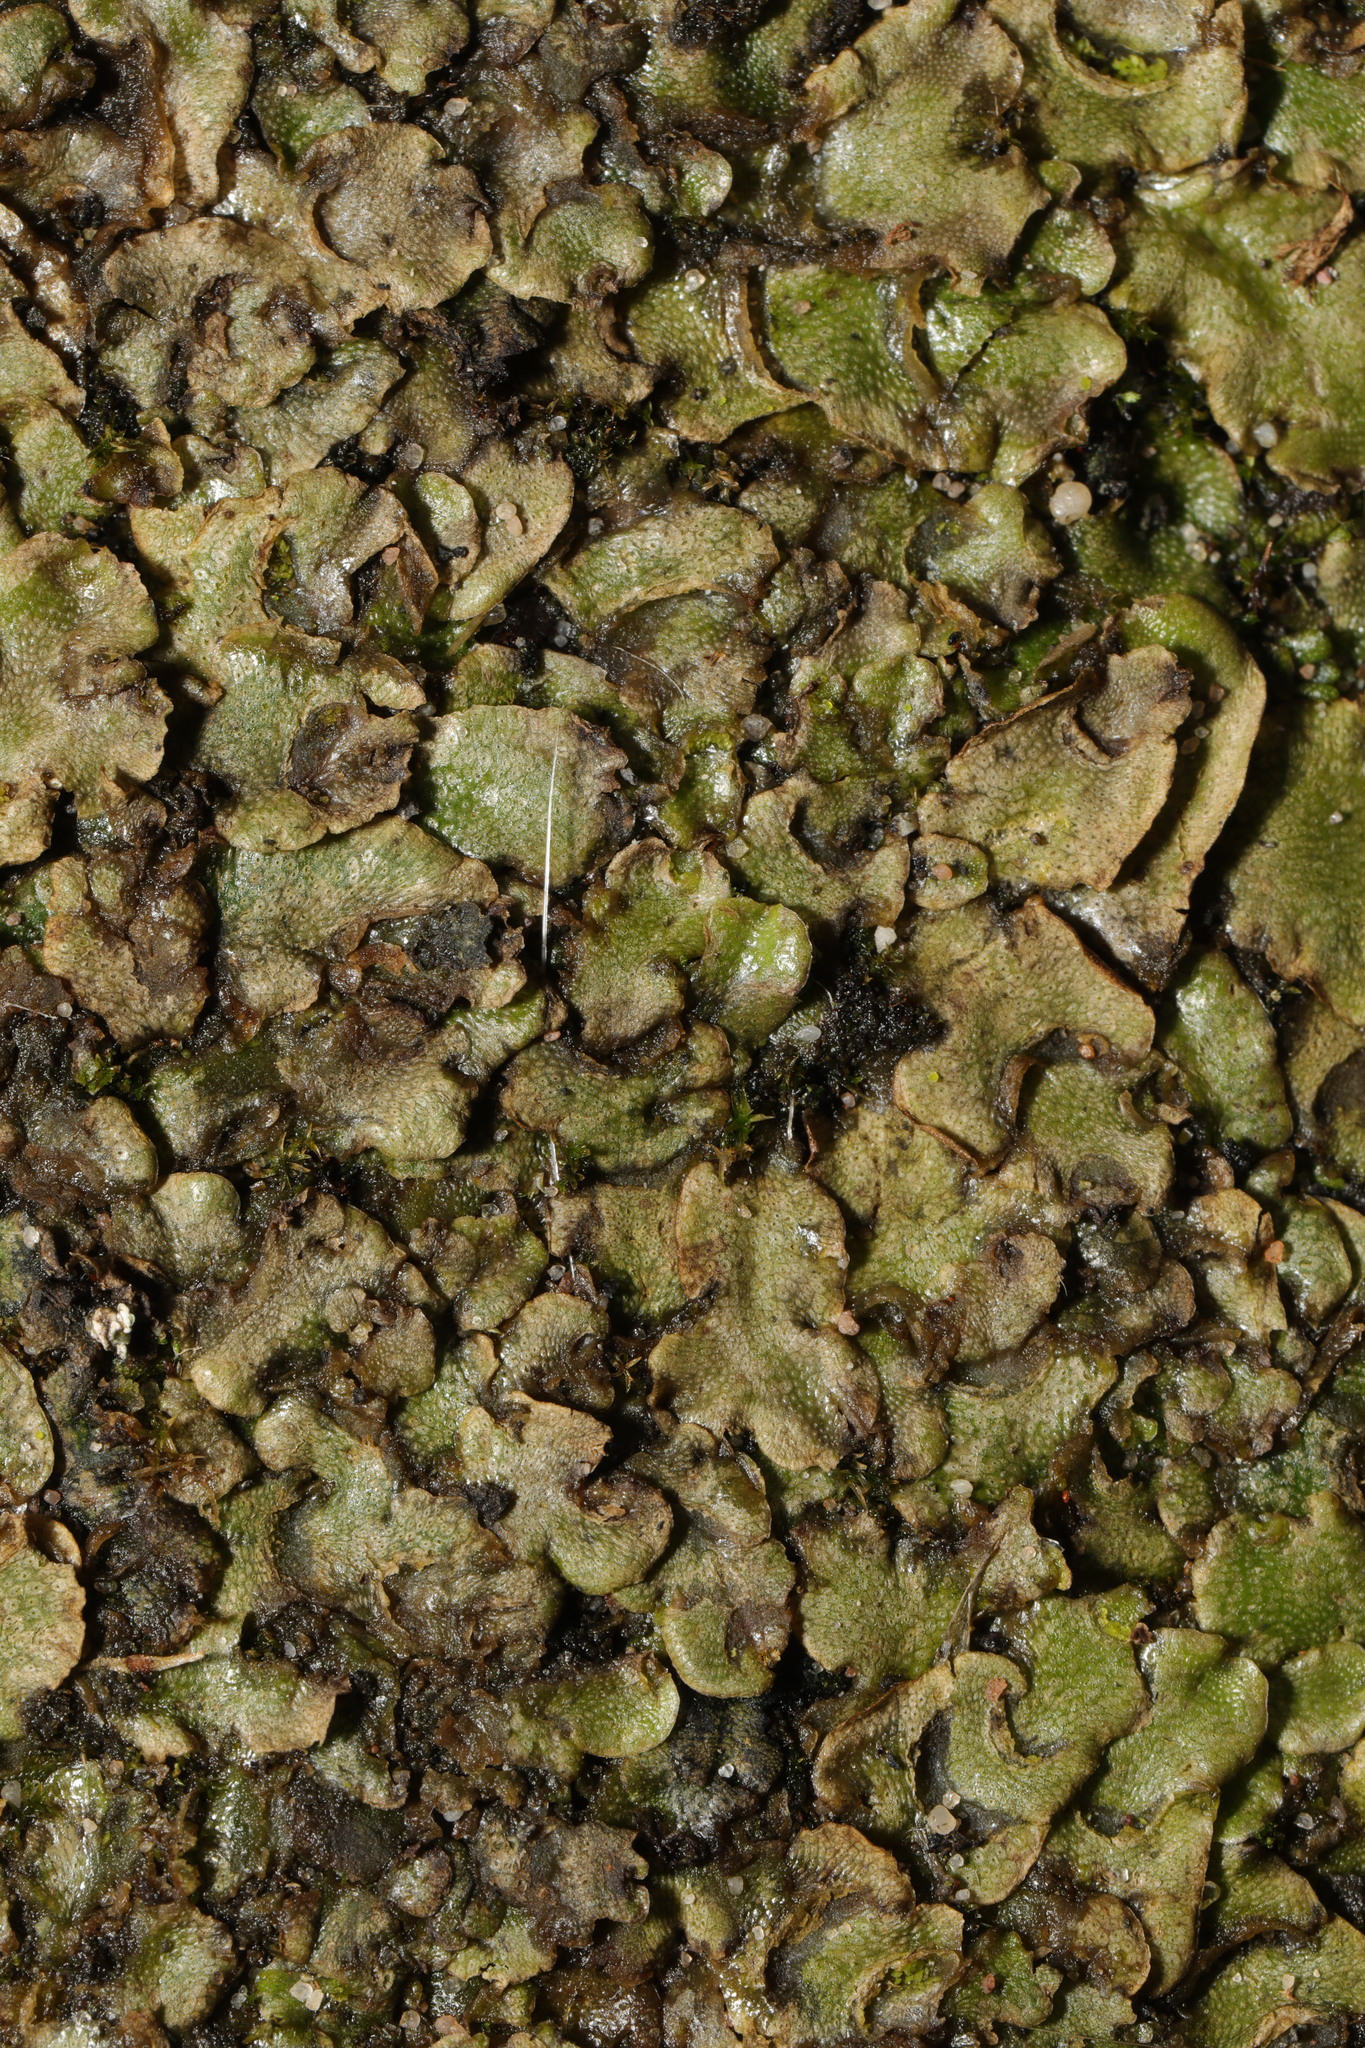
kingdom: Plantae
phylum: Marchantiophyta
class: Marchantiopsida
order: Lunulariales
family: Lunulariaceae
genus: Lunularia
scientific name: Lunularia cruciata
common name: Crescent-cup liverwort
